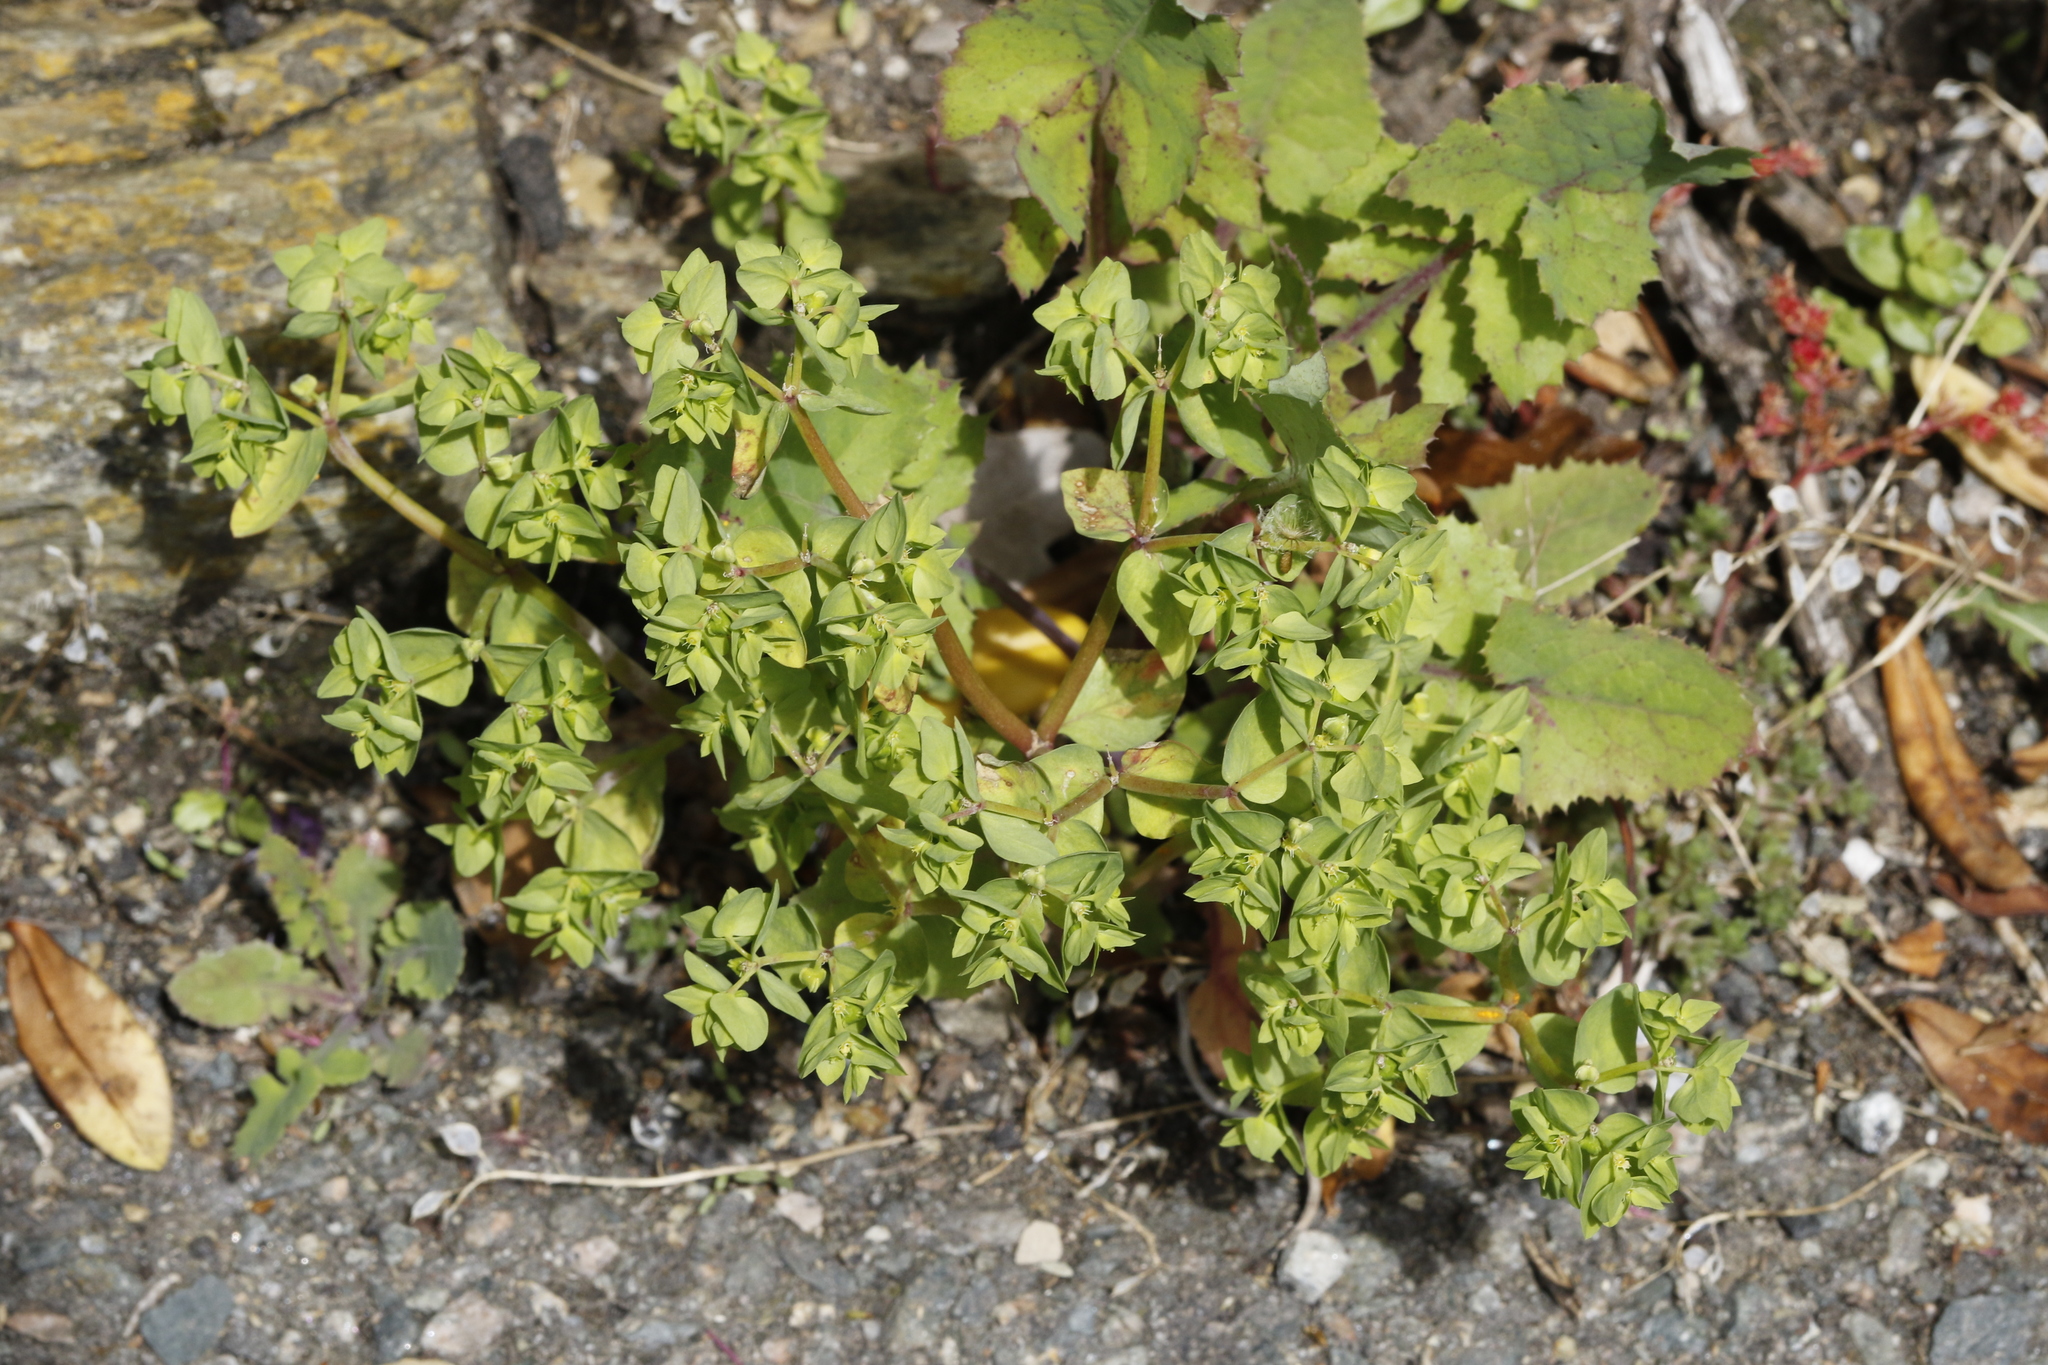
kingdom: Plantae
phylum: Tracheophyta
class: Magnoliopsida
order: Malpighiales
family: Euphorbiaceae
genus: Euphorbia
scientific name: Euphorbia peplus
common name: Petty spurge
